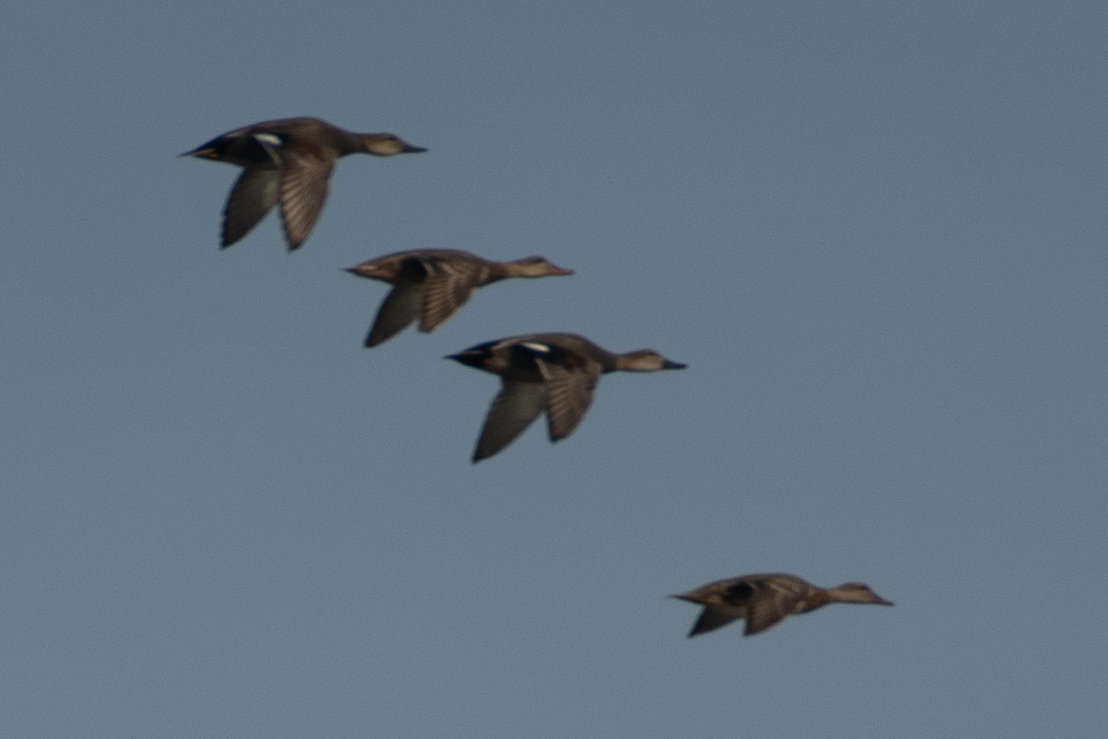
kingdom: Animalia
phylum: Chordata
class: Aves
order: Anseriformes
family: Anatidae
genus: Mareca
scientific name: Mareca strepera
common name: Gadwall
